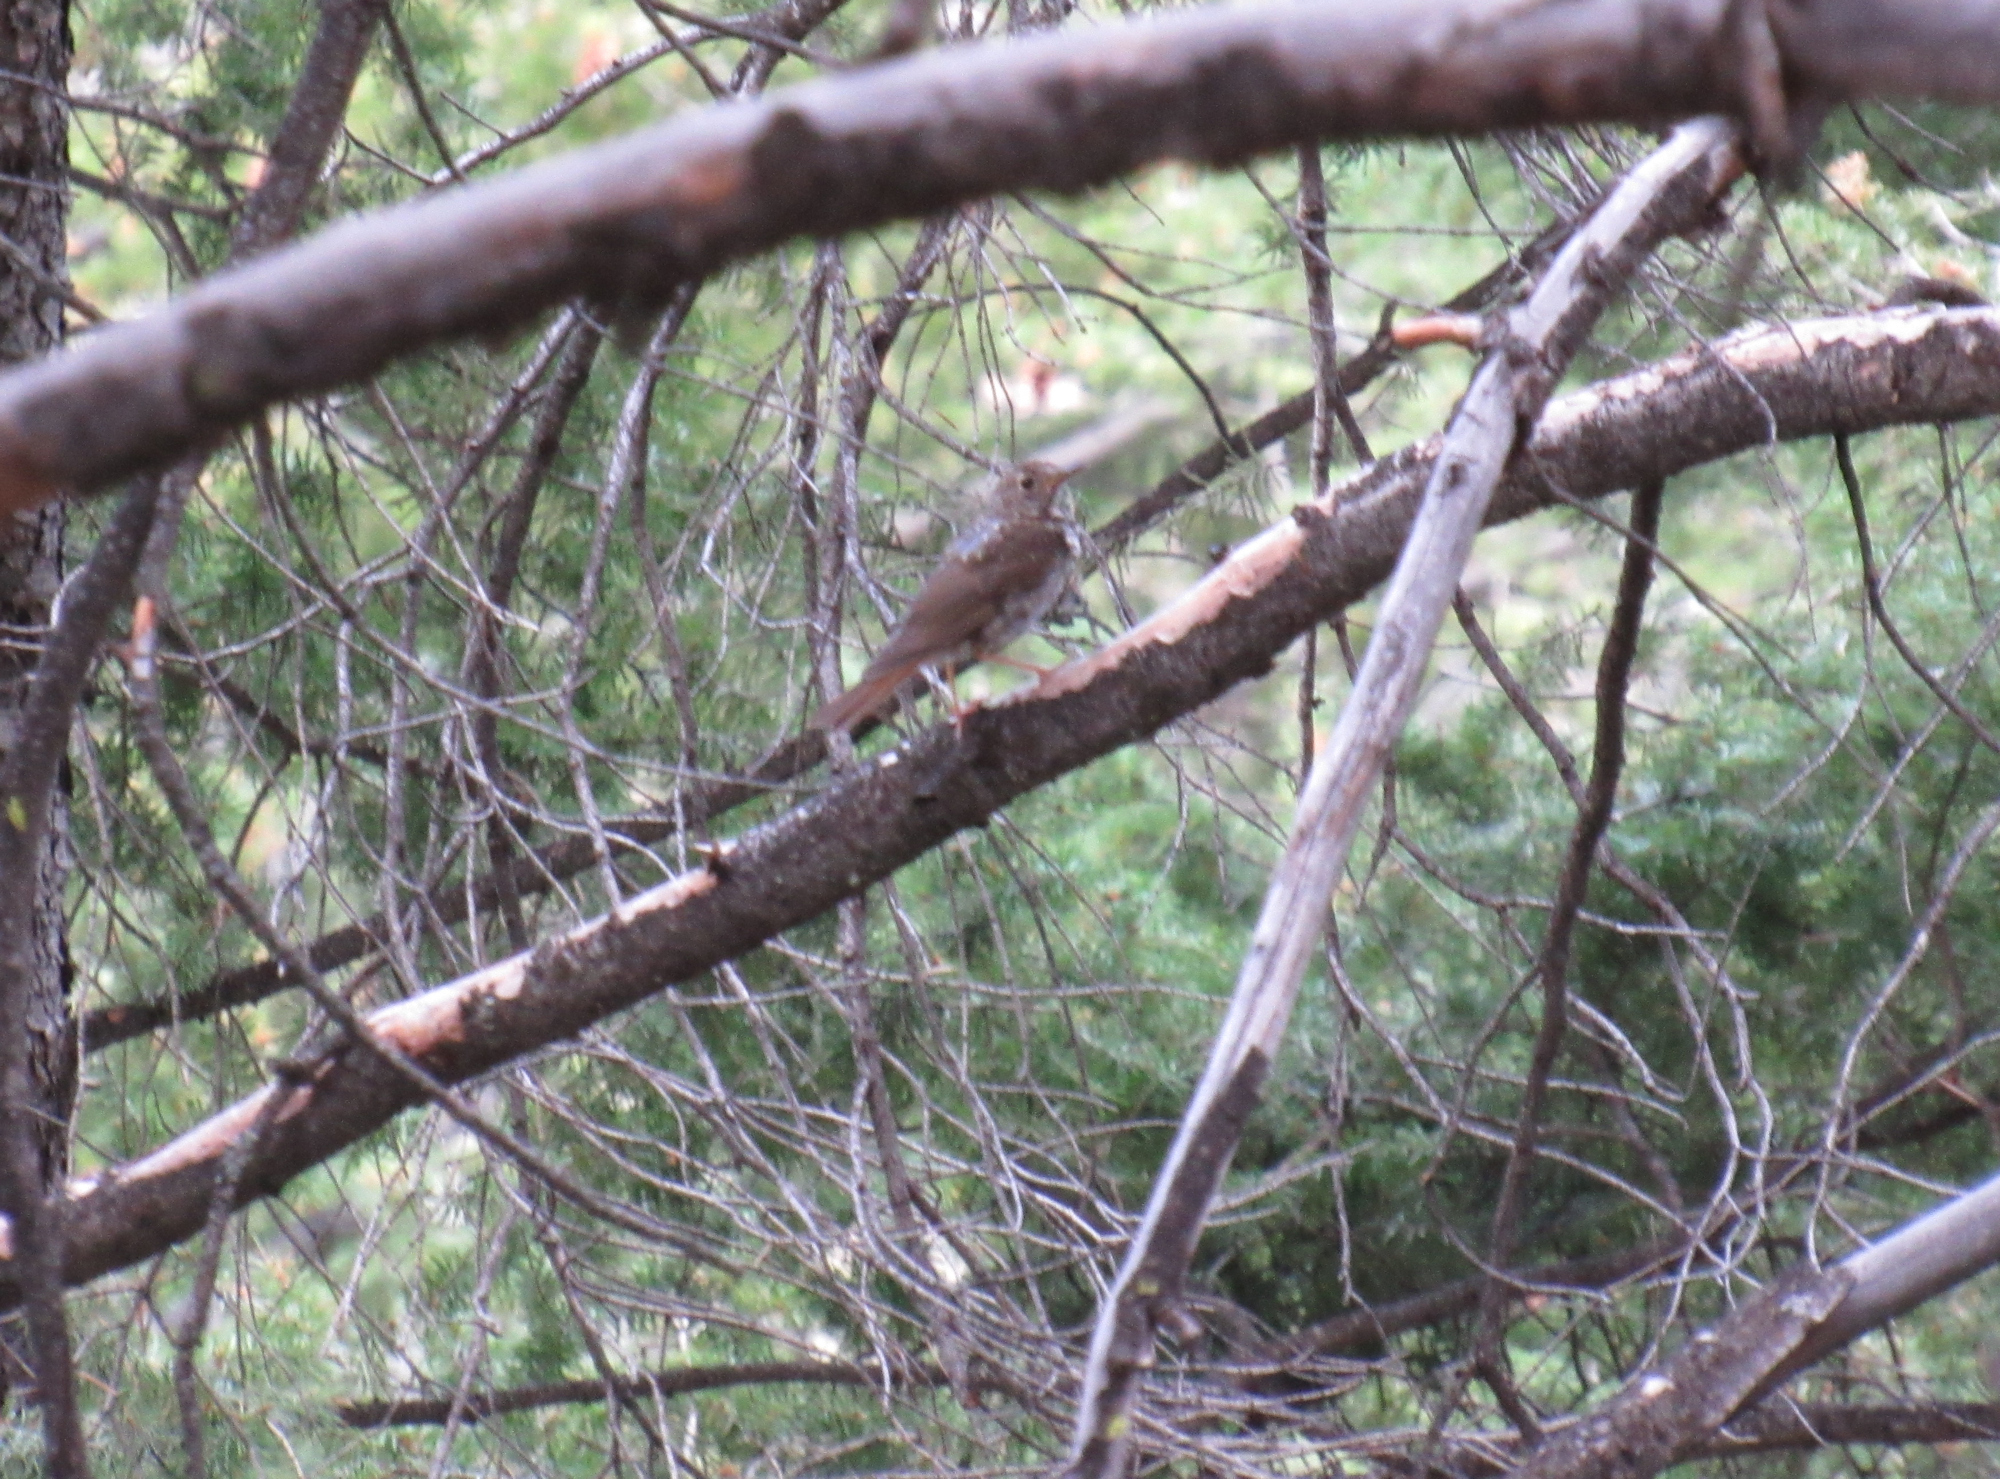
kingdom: Animalia
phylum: Chordata
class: Aves
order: Passeriformes
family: Turdidae
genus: Catharus
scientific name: Catharus guttatus
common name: Hermit thrush
